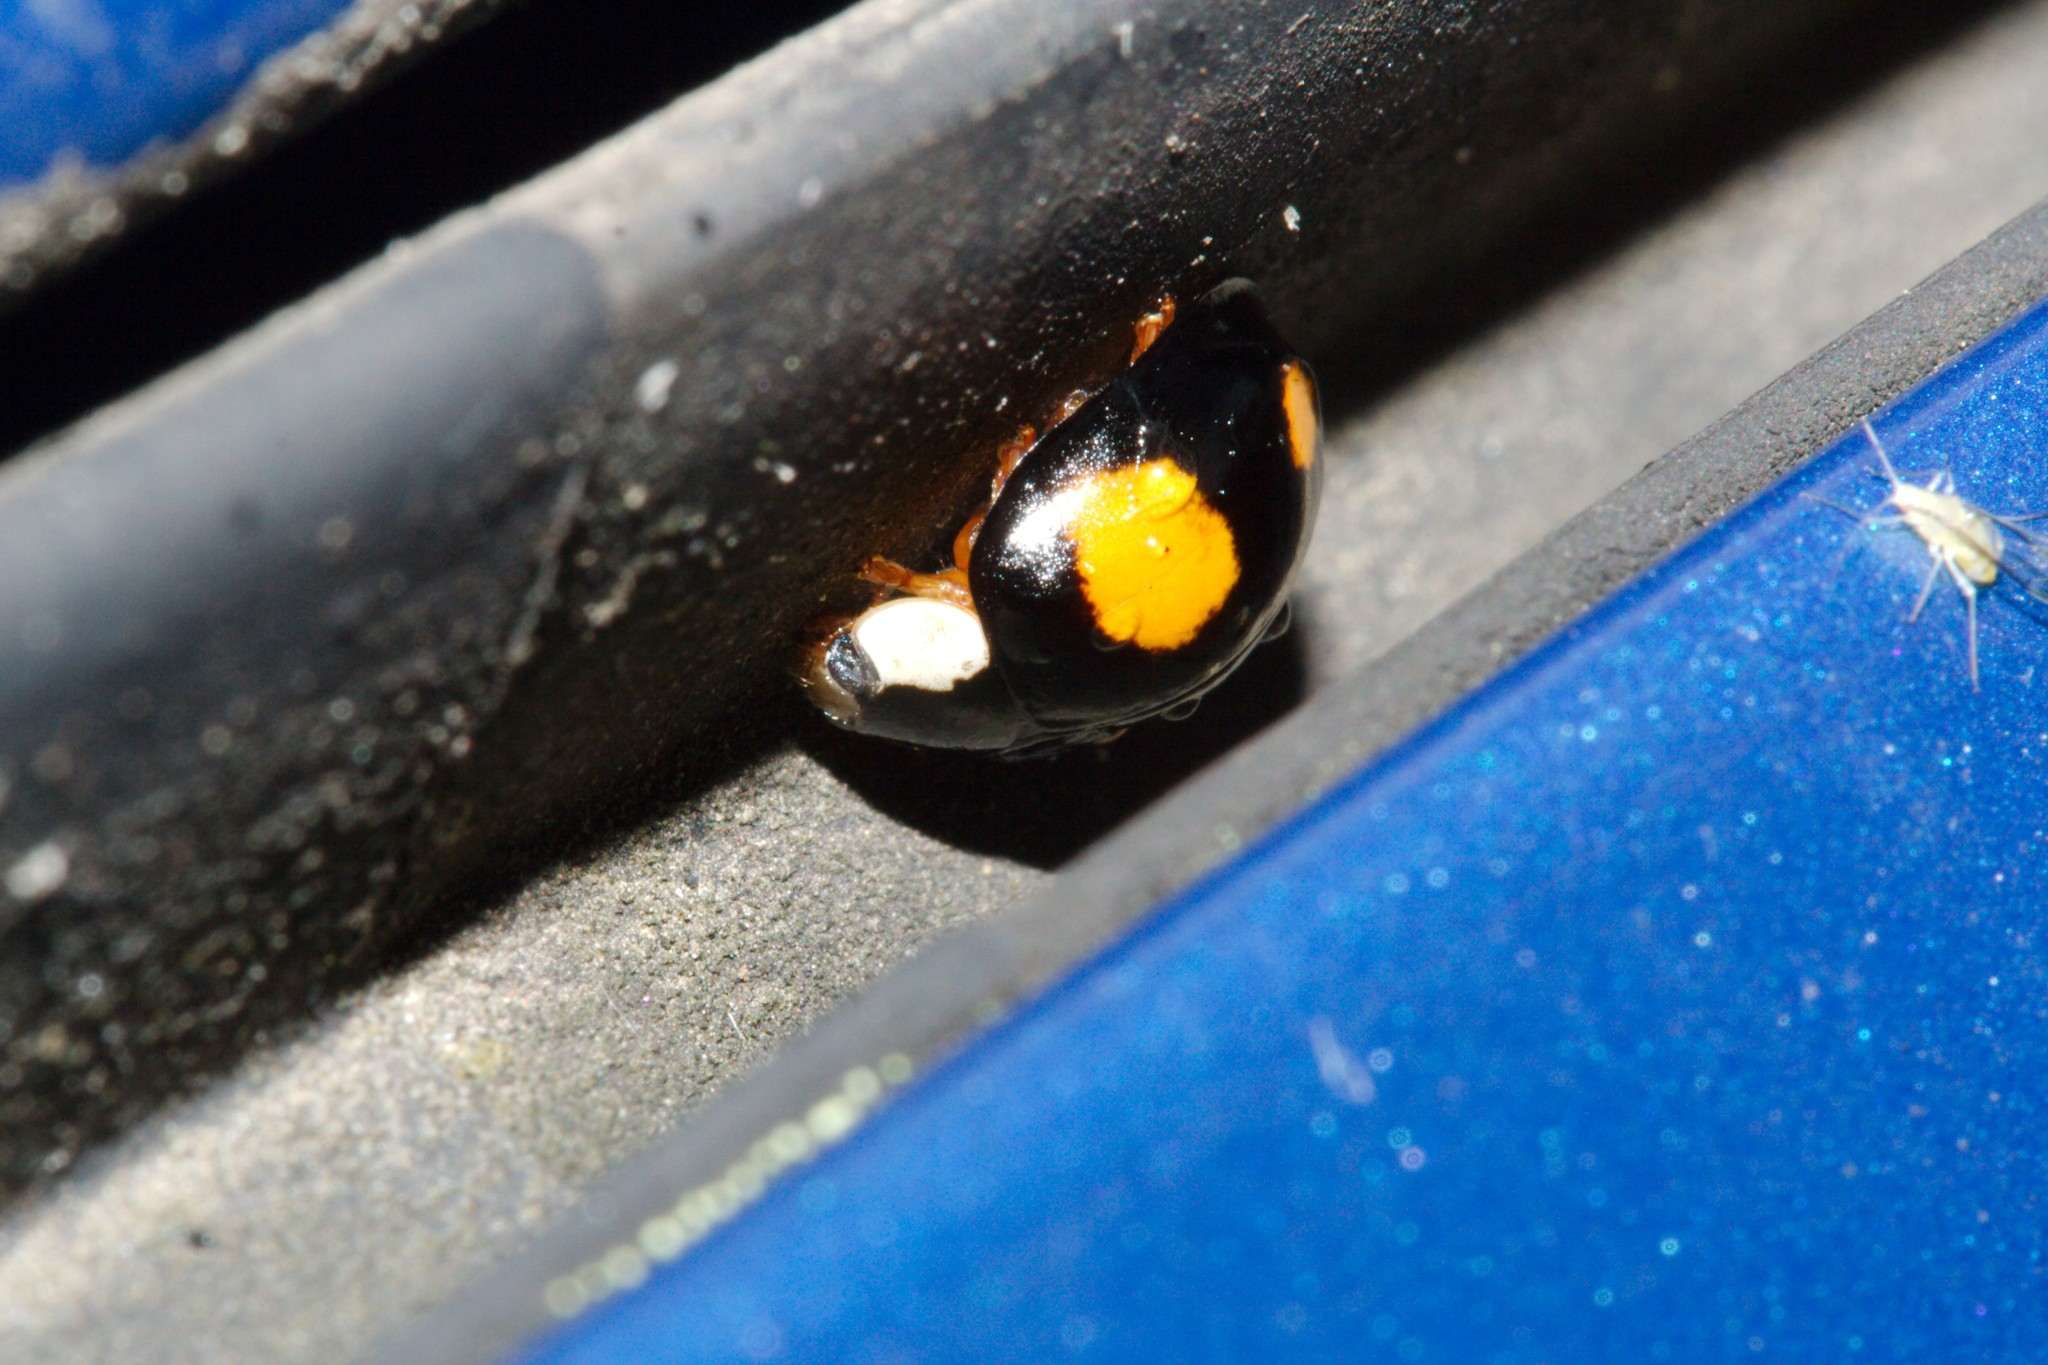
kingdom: Animalia
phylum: Arthropoda
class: Insecta
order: Coleoptera
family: Coccinellidae
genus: Harmonia
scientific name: Harmonia axyridis
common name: Harlequin ladybird
